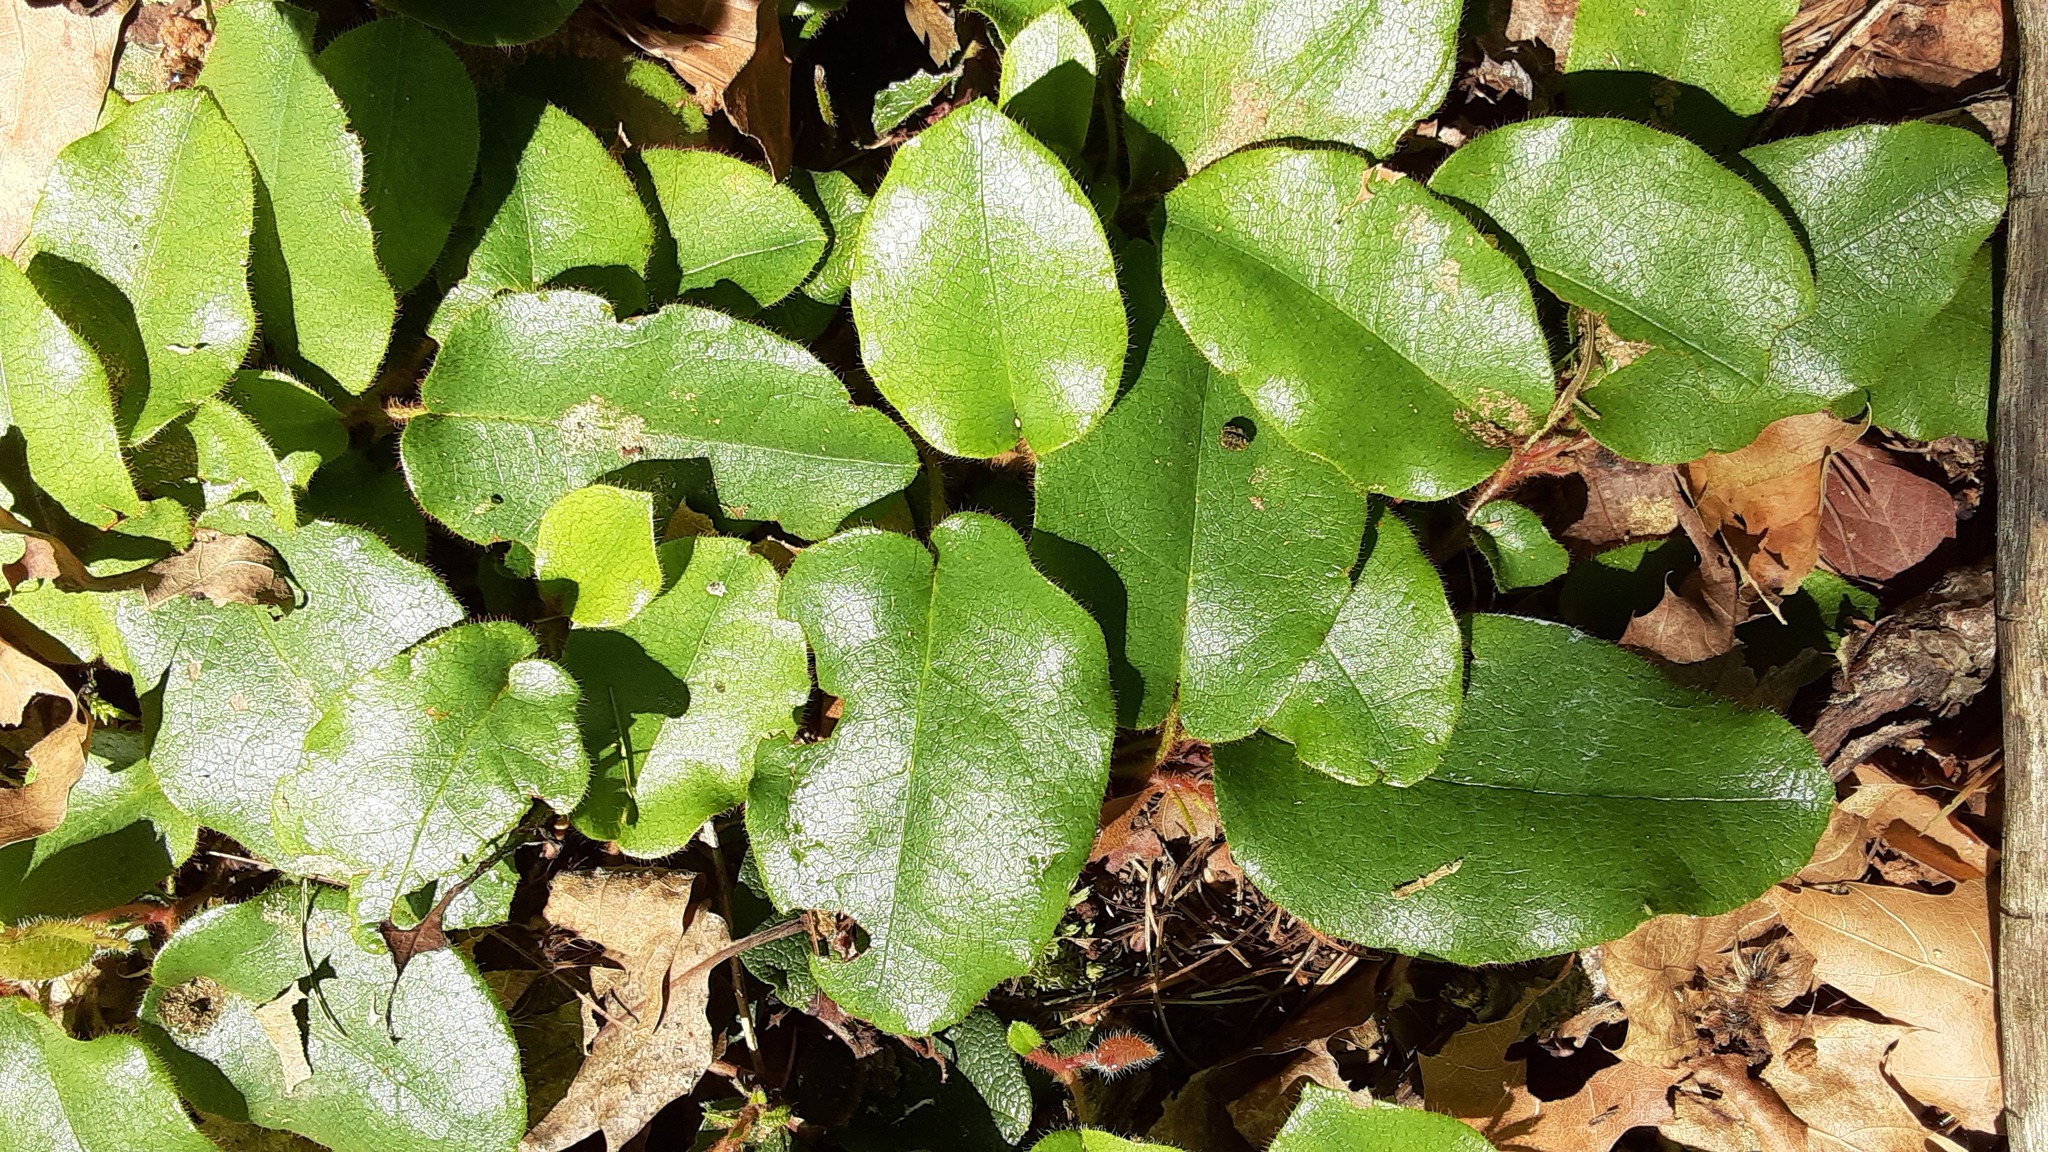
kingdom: Plantae
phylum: Tracheophyta
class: Magnoliopsida
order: Ericales
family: Ericaceae
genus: Epigaea
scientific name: Epigaea repens
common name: Gravelroot
